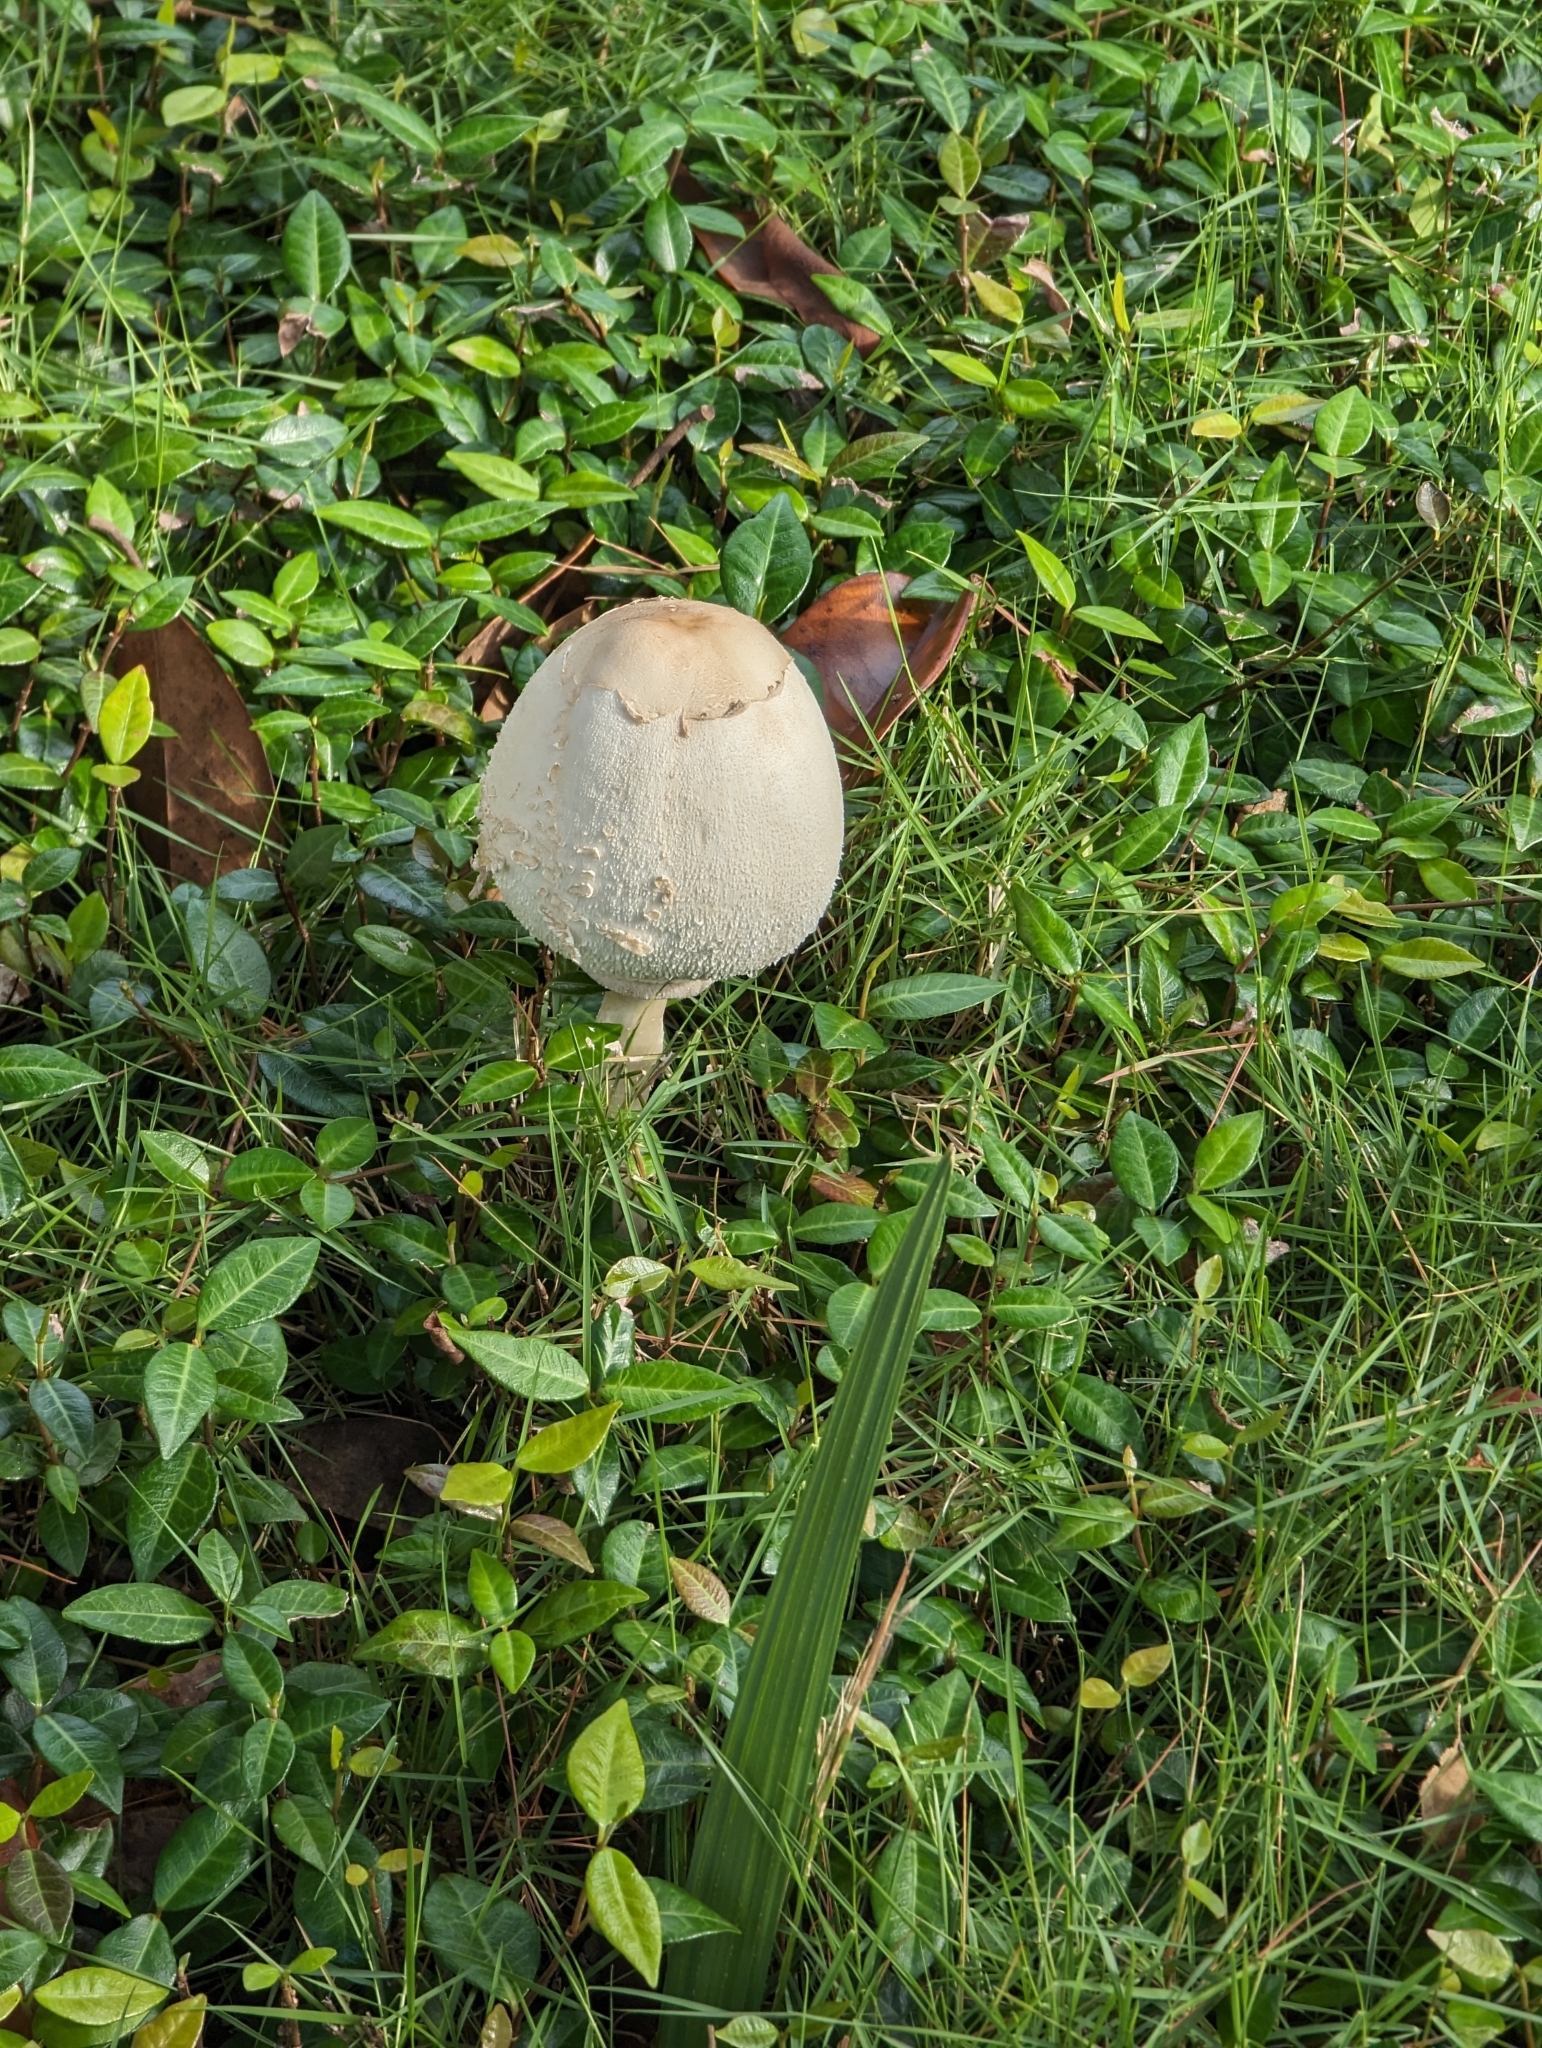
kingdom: Fungi
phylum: Basidiomycota
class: Agaricomycetes
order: Agaricales
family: Agaricaceae
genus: Chlorophyllum
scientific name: Chlorophyllum molybdites
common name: False parasol
